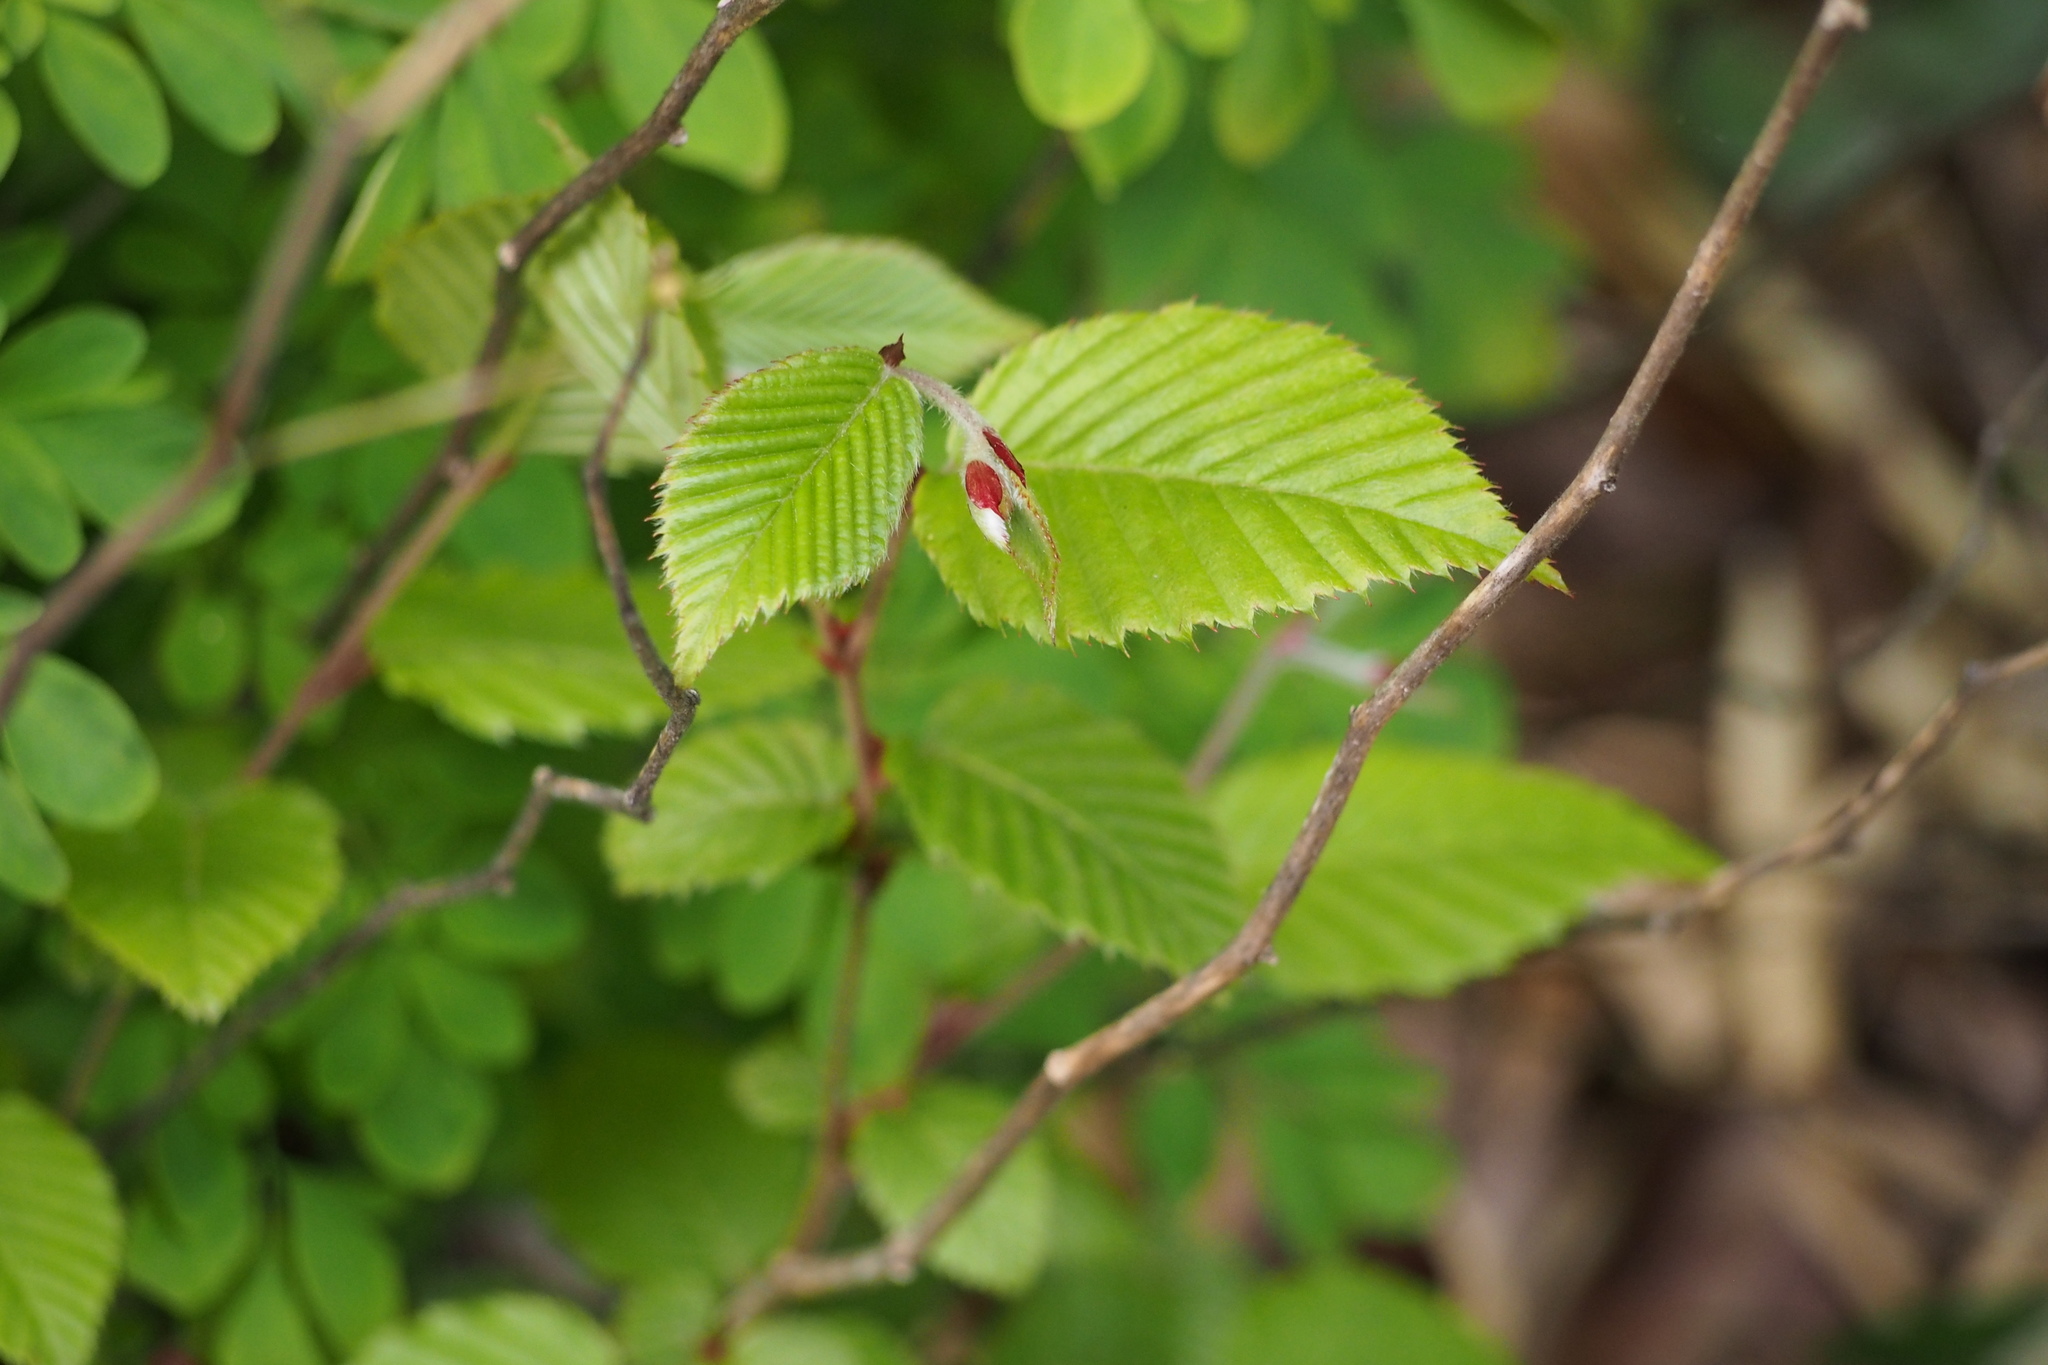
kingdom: Plantae
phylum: Tracheophyta
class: Magnoliopsida
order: Fagales
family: Betulaceae
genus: Carpinus
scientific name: Carpinus tschonoskii
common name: Asian hornbeam
